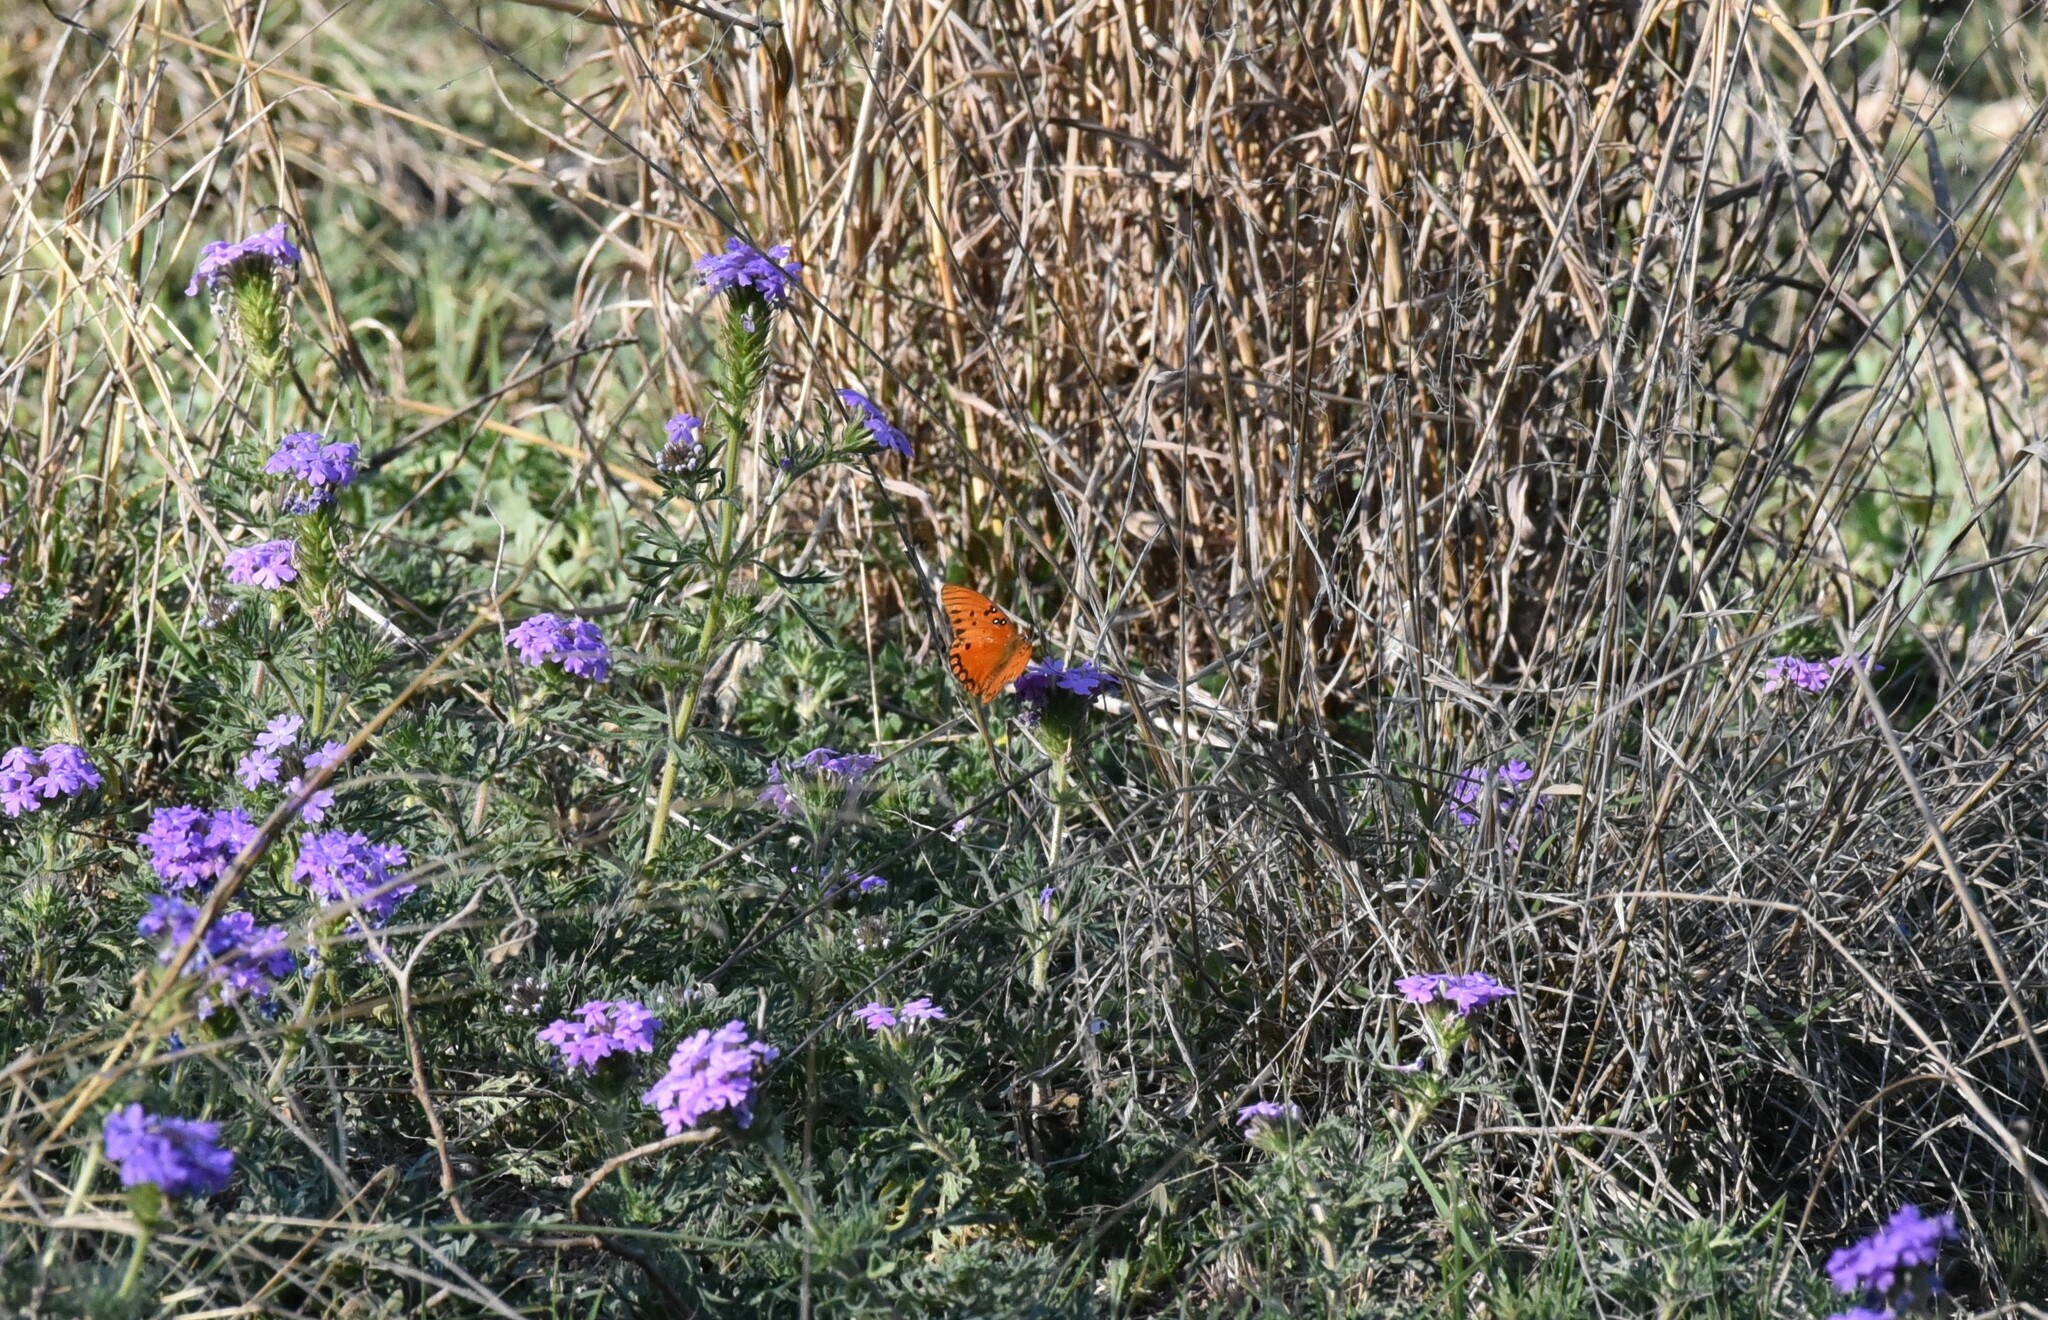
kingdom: Animalia
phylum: Arthropoda
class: Insecta
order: Lepidoptera
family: Nymphalidae
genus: Dione
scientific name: Dione vanillae
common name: Gulf fritillary
